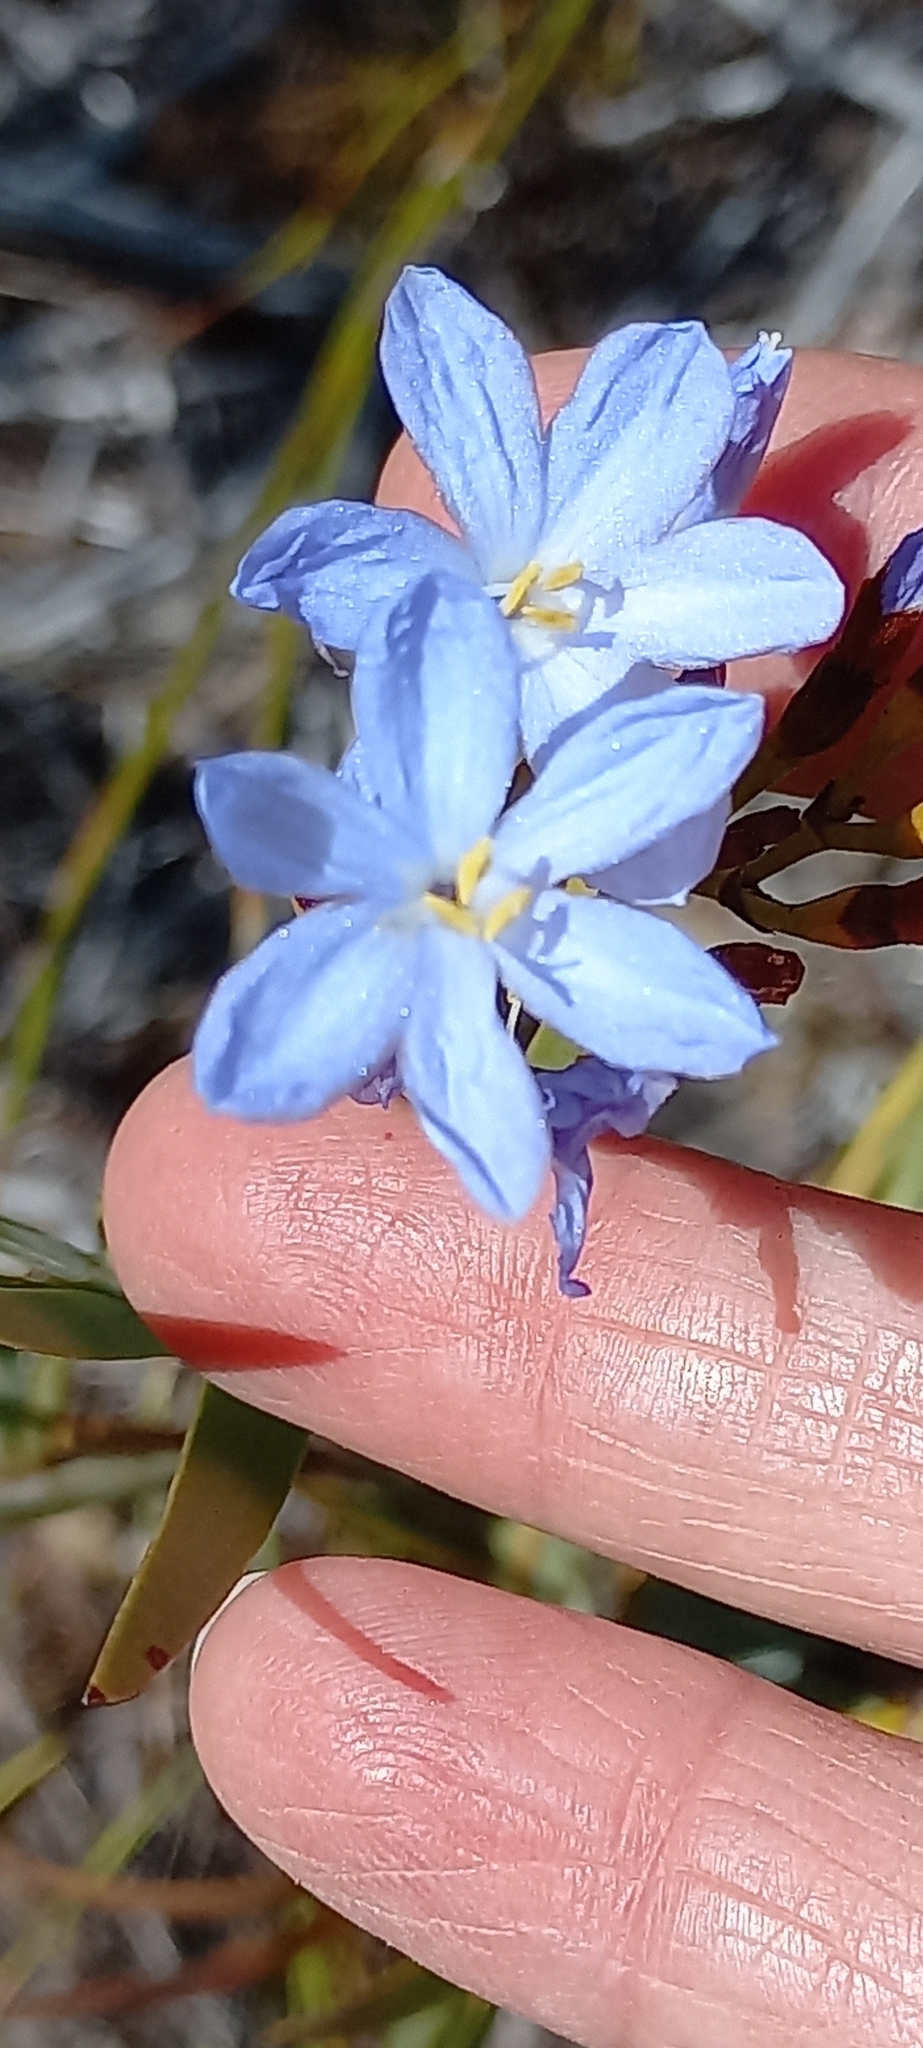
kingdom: Plantae
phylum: Tracheophyta
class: Liliopsida
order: Asparagales
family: Iridaceae
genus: Nivenia
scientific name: Nivenia stokoei
